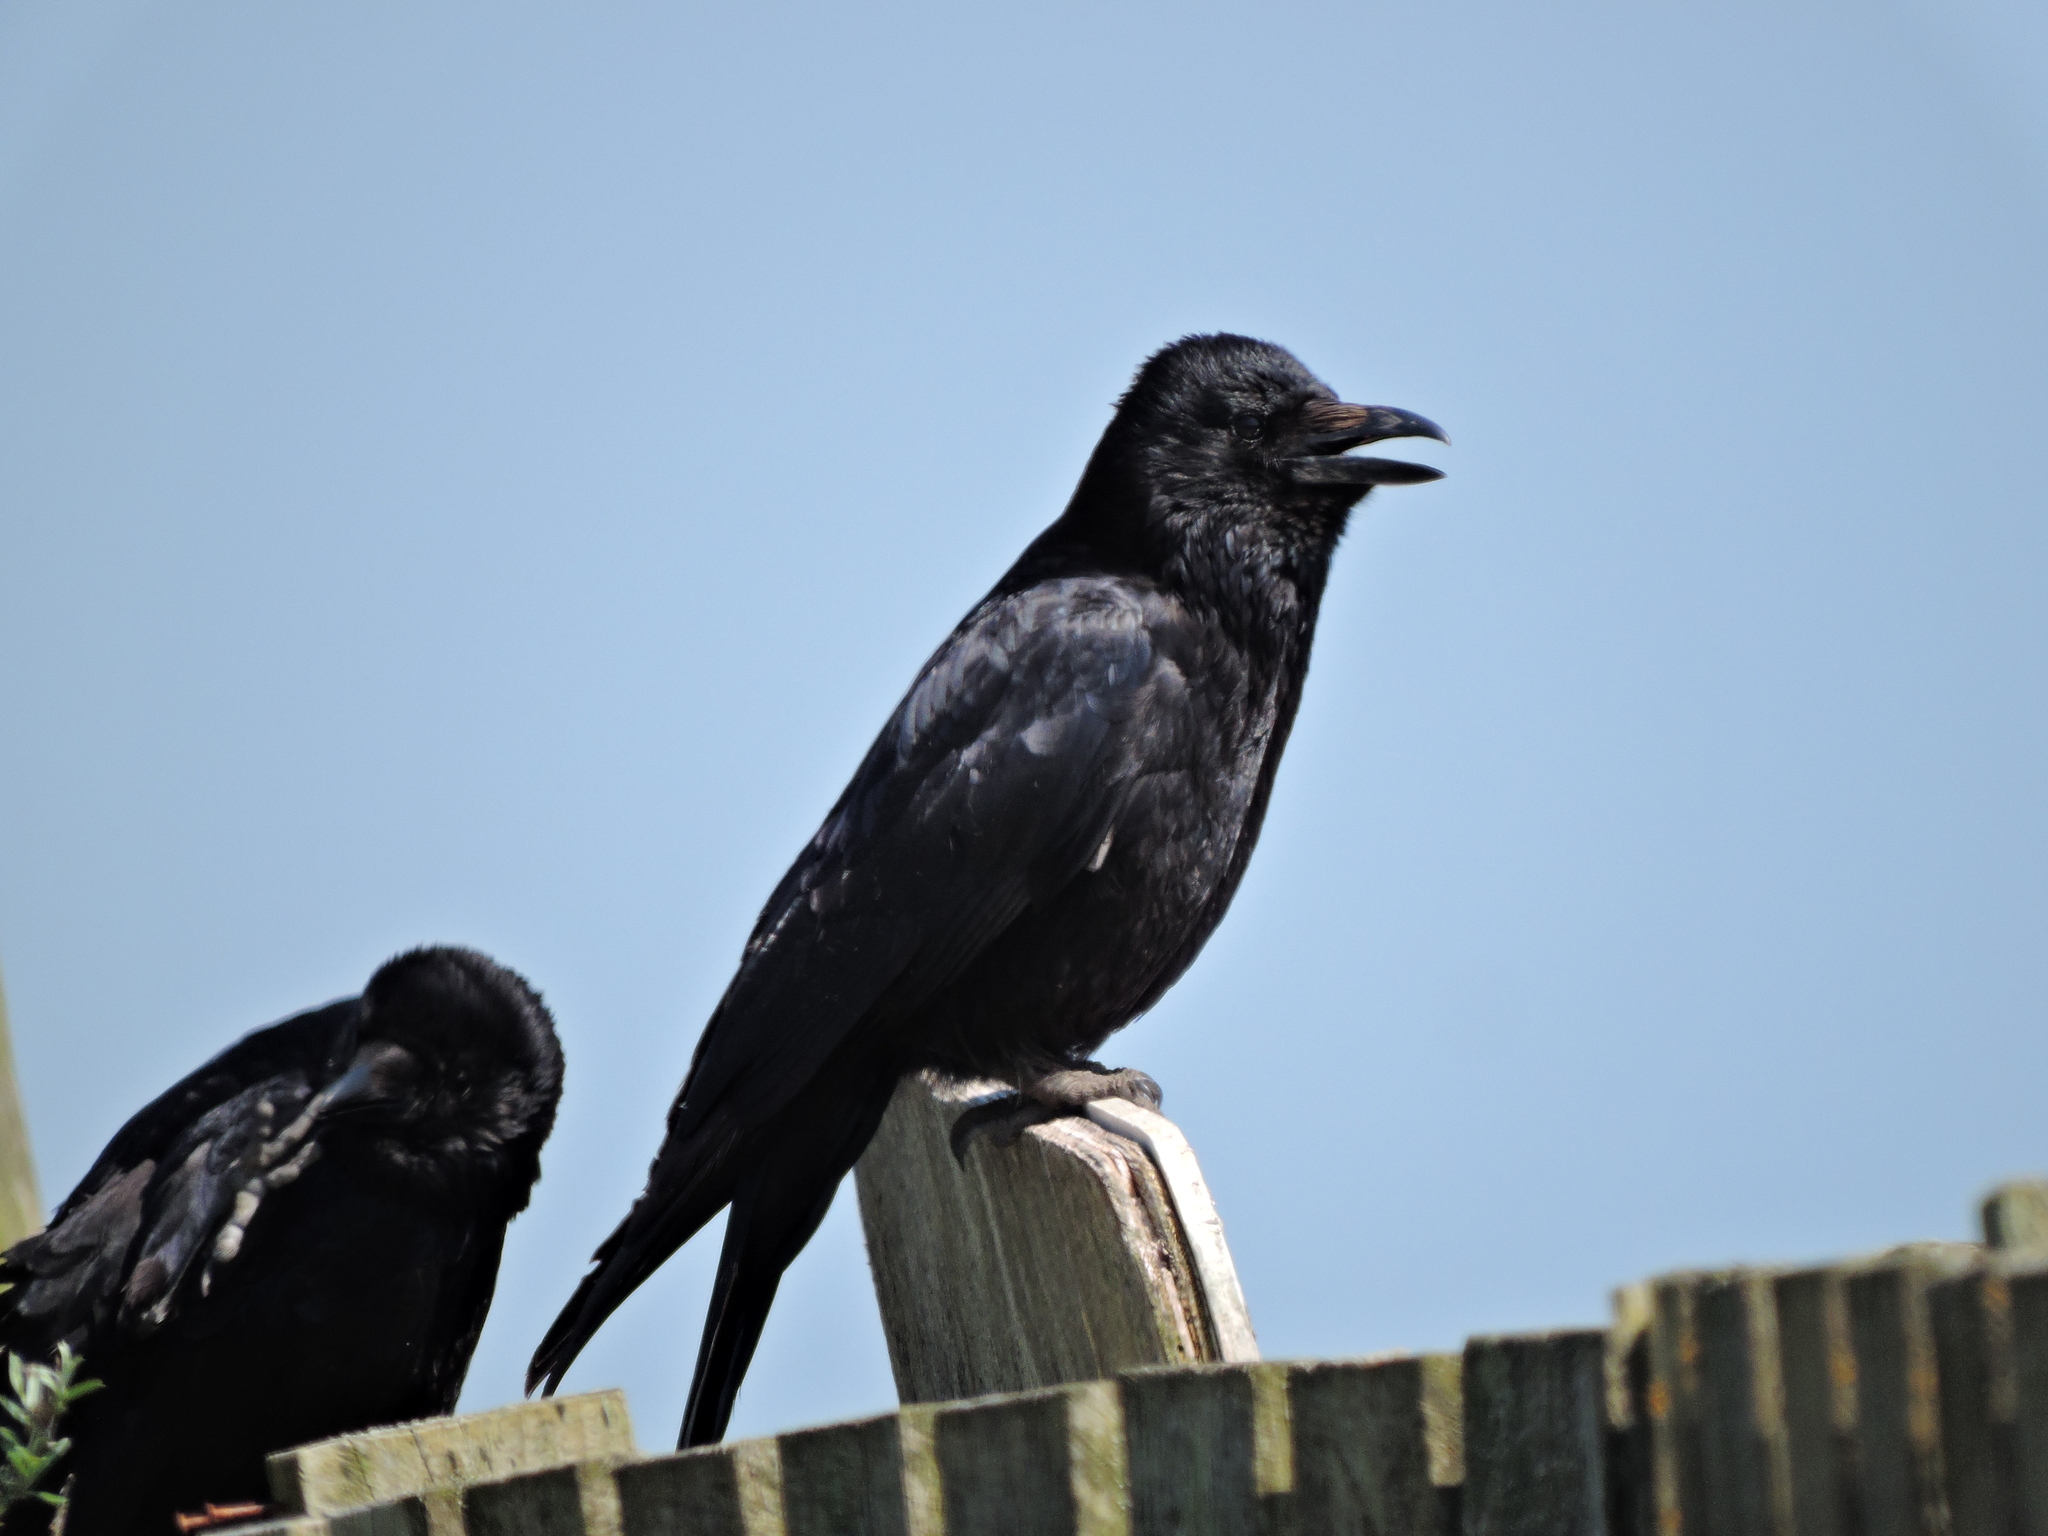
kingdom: Animalia
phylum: Chordata
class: Aves
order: Passeriformes
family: Corvidae
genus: Corvus
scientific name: Corvus corone
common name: Carrion crow
